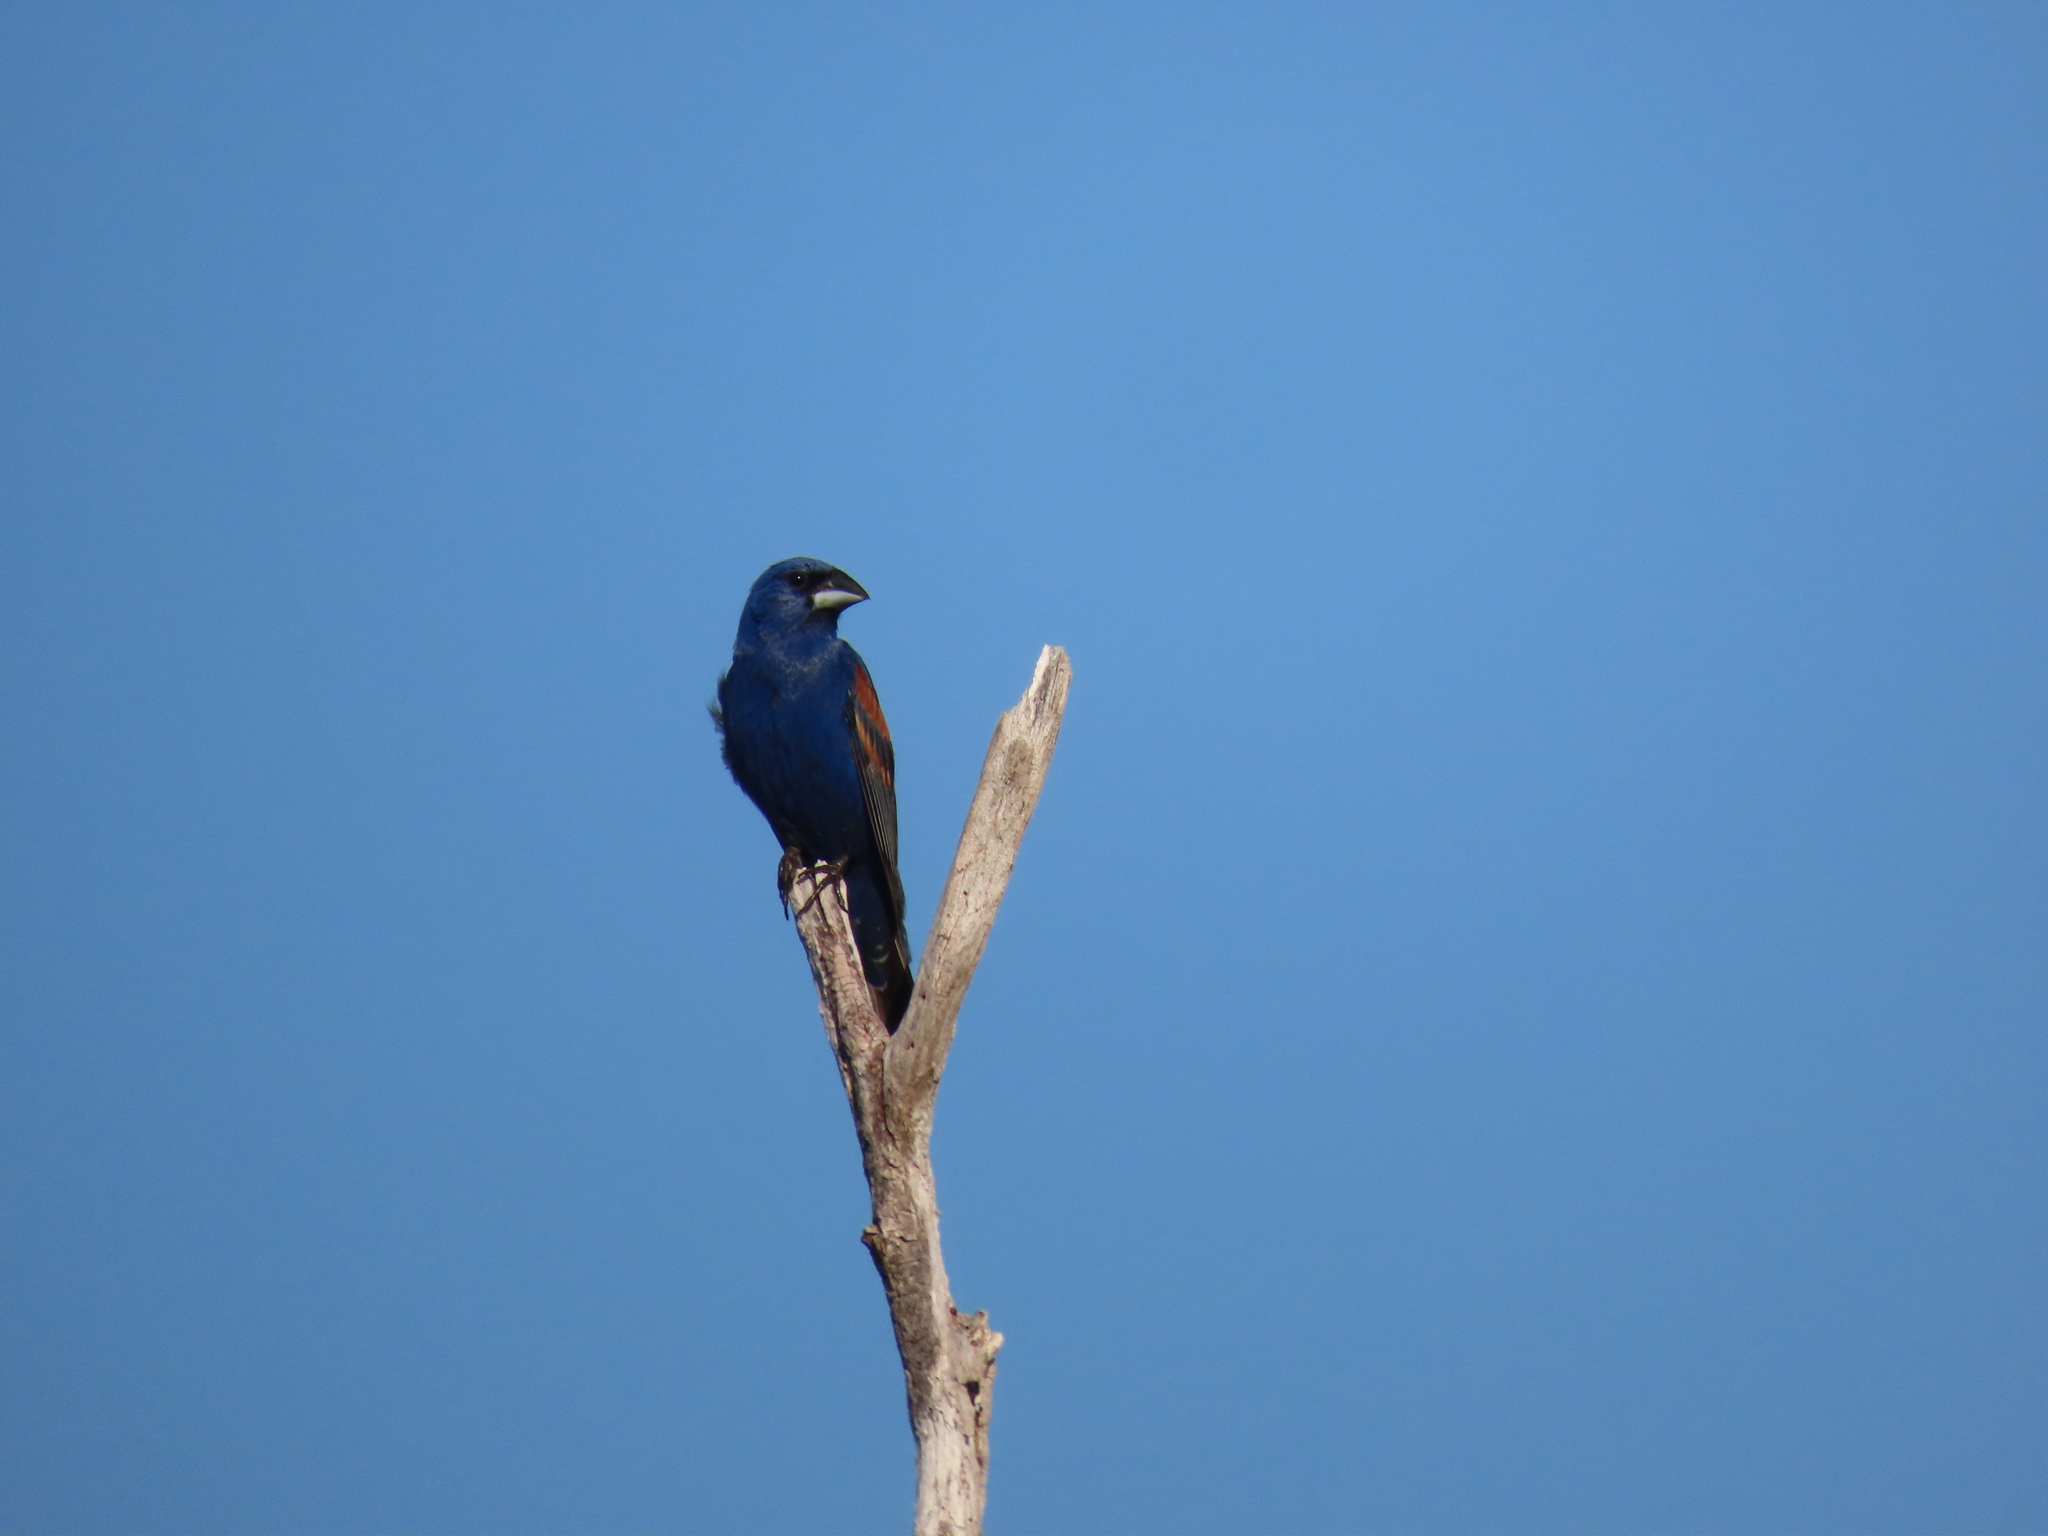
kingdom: Animalia
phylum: Chordata
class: Aves
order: Passeriformes
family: Cardinalidae
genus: Passerina
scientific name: Passerina caerulea
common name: Blue grosbeak
